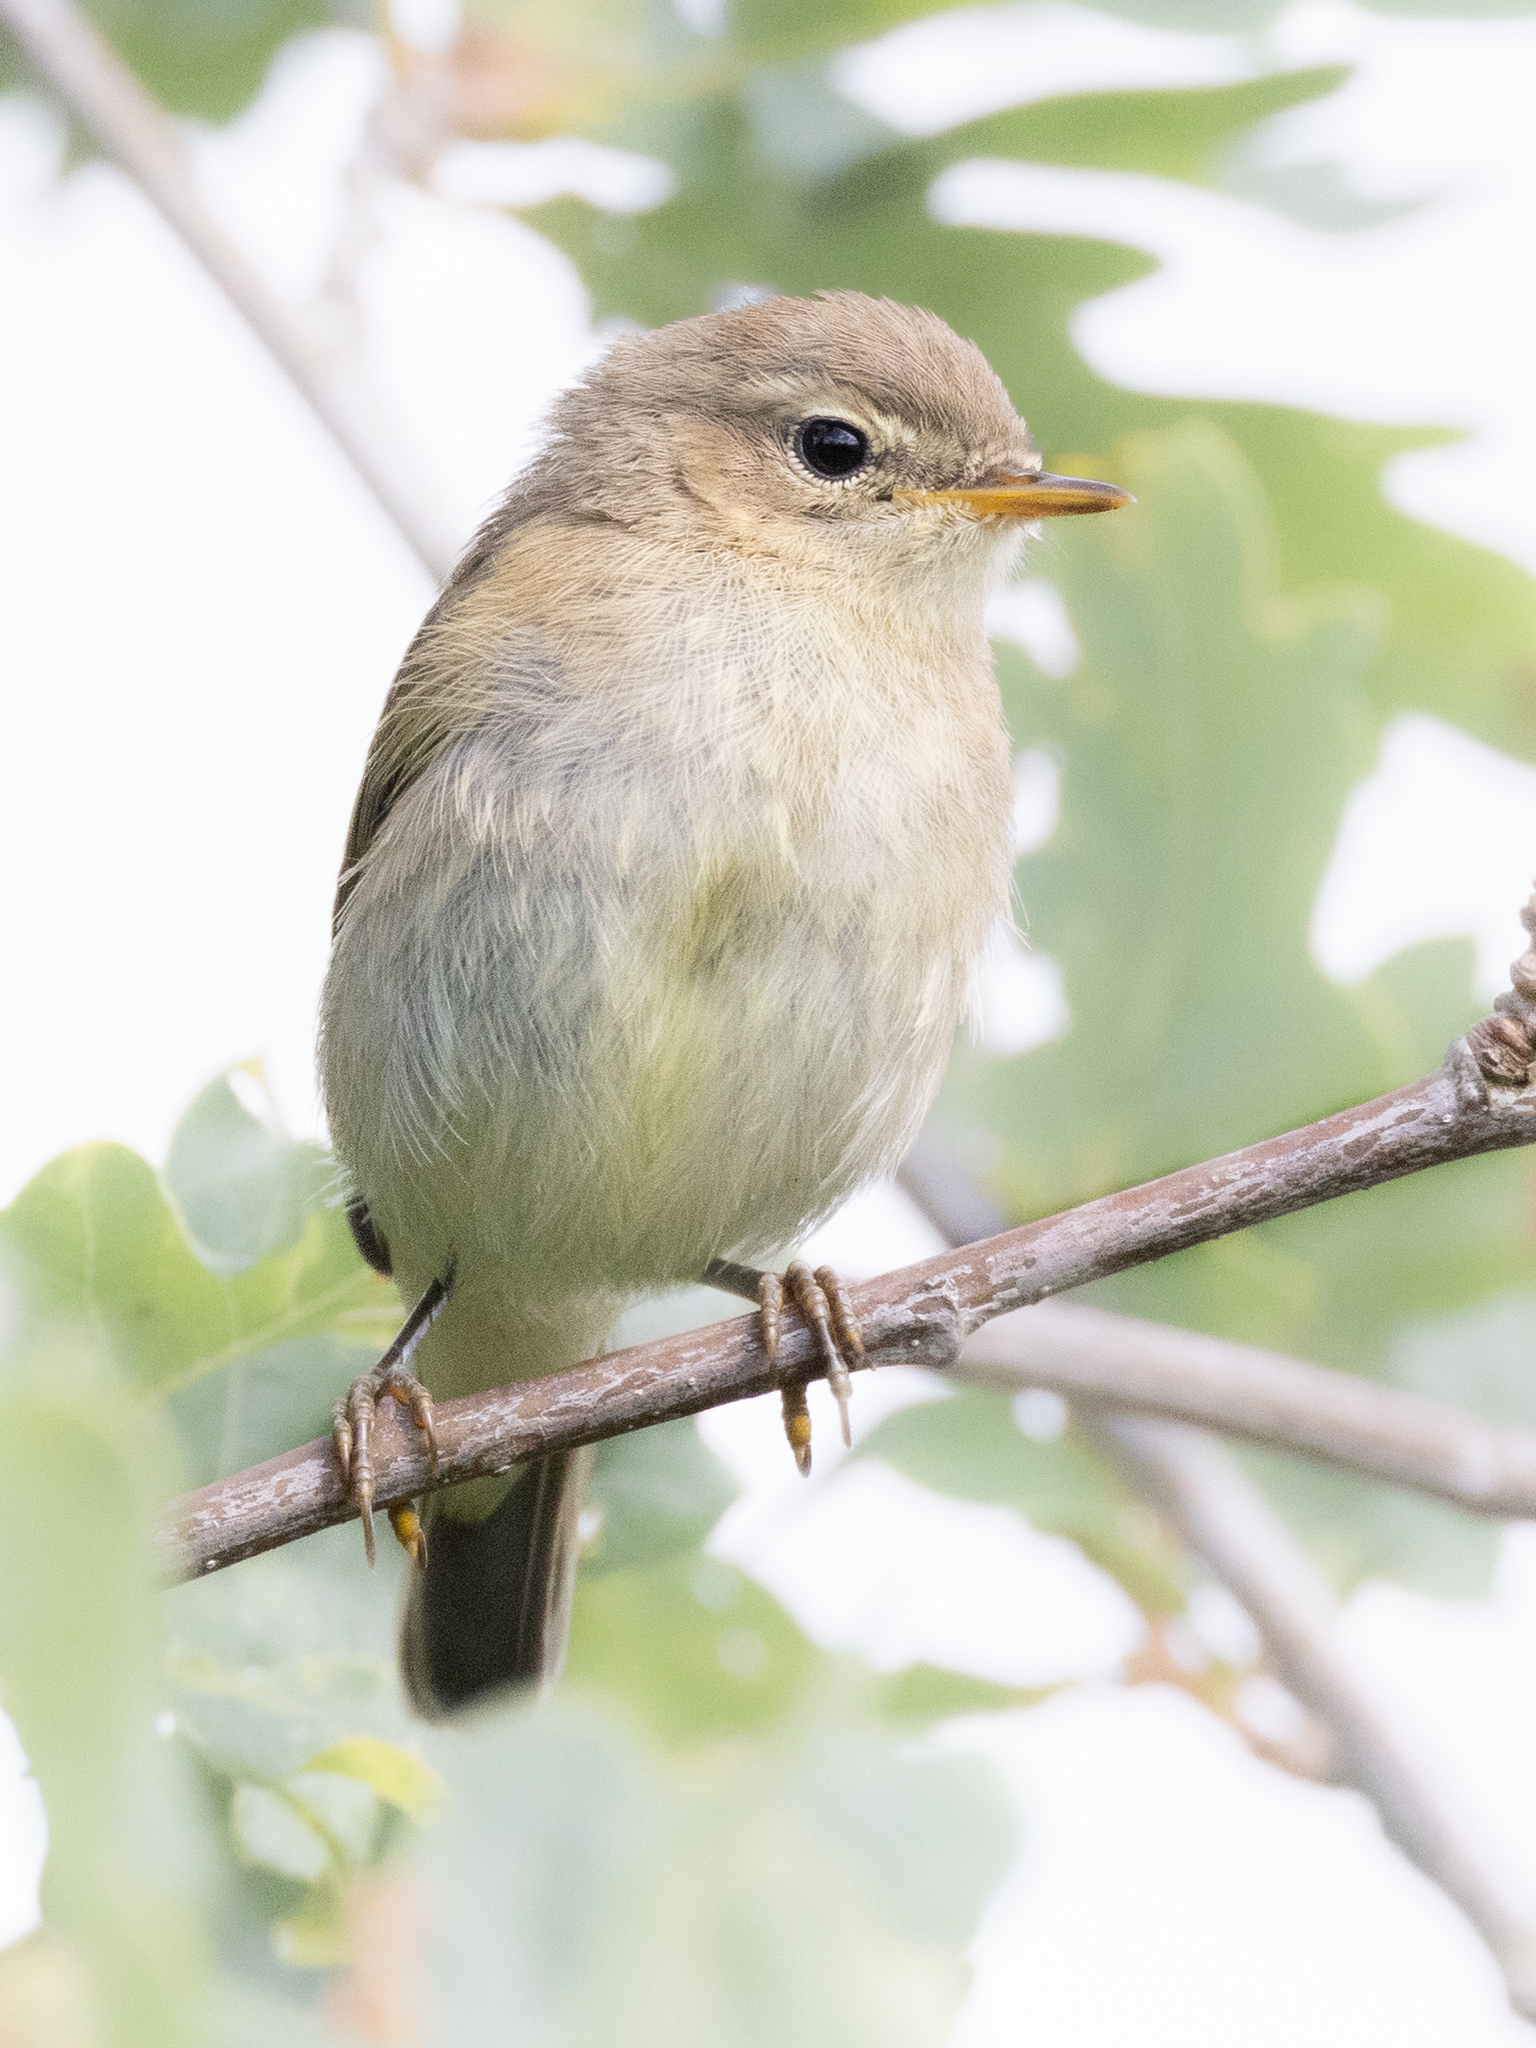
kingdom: Animalia
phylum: Chordata
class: Aves
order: Passeriformes
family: Phylloscopidae
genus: Phylloscopus
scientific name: Phylloscopus collybita
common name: Common chiffchaff
